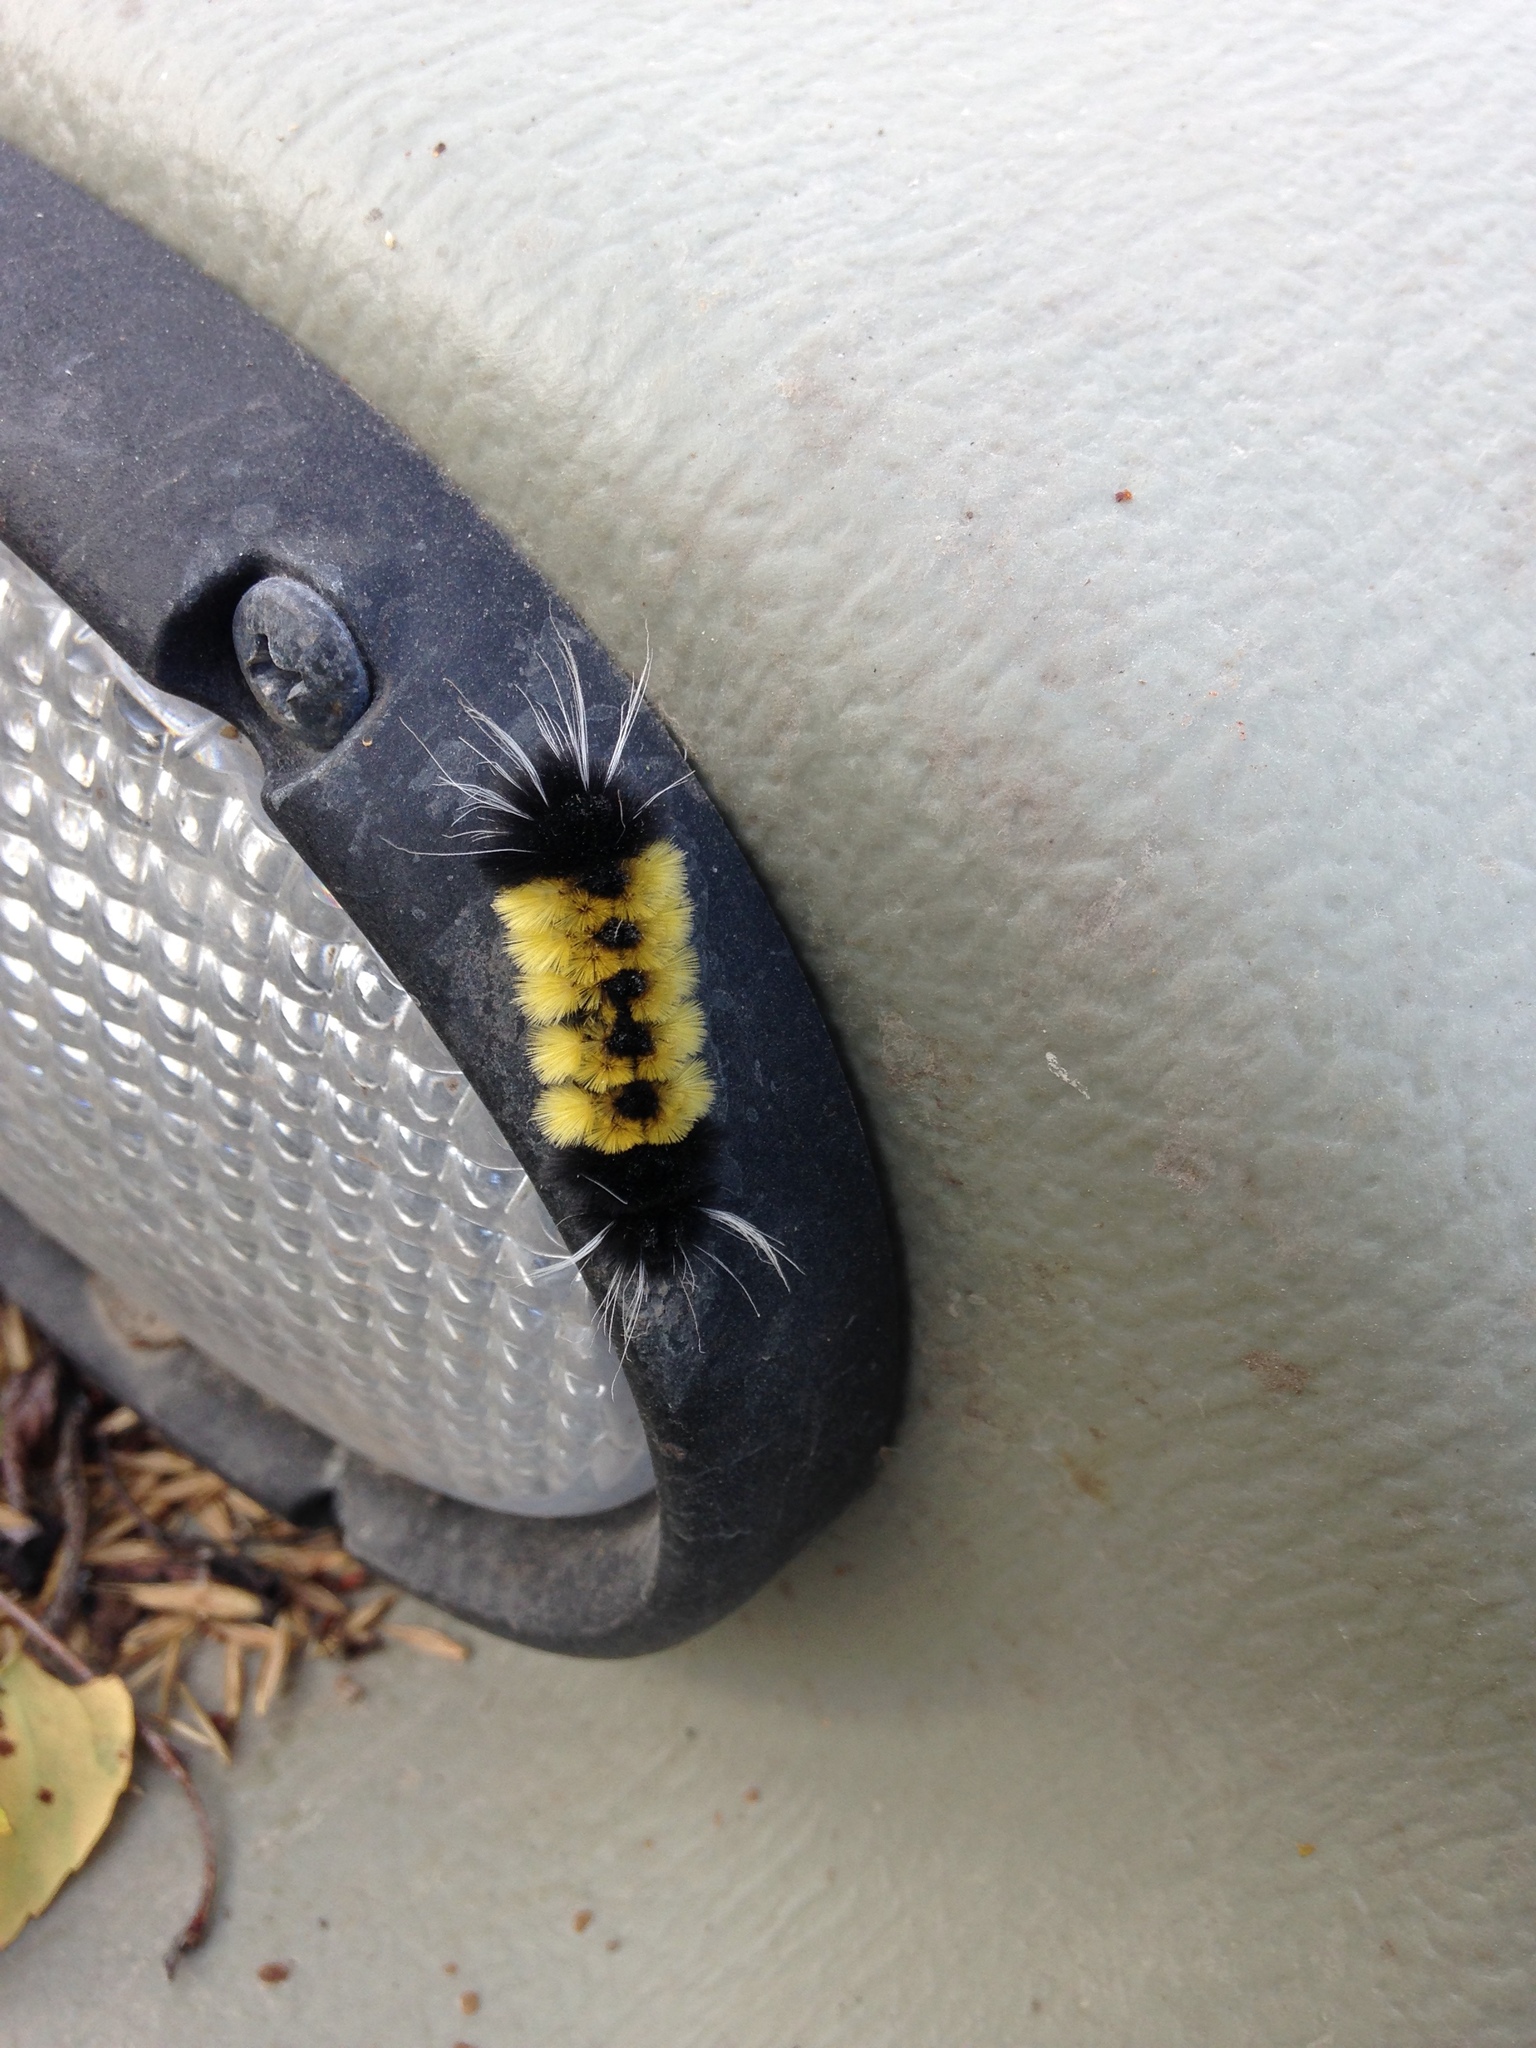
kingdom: Animalia
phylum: Arthropoda
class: Insecta
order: Lepidoptera
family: Erebidae
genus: Lophocampa
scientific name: Lophocampa maculata
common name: Spotted tussock moth
